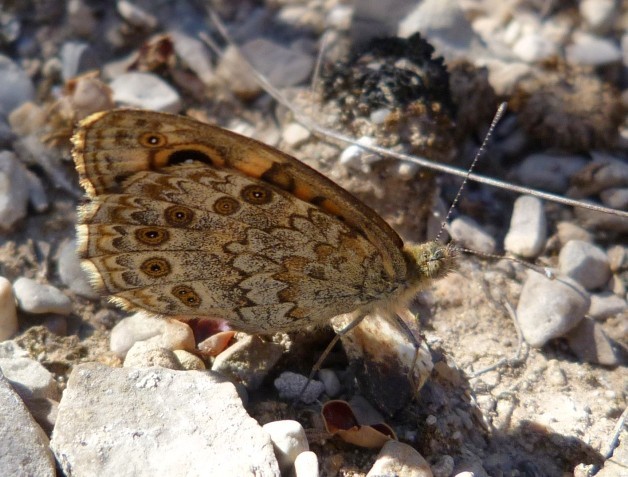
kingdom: Animalia
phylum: Arthropoda
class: Insecta
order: Lepidoptera
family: Nymphalidae
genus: Pararge
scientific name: Pararge Lasiommata megera
